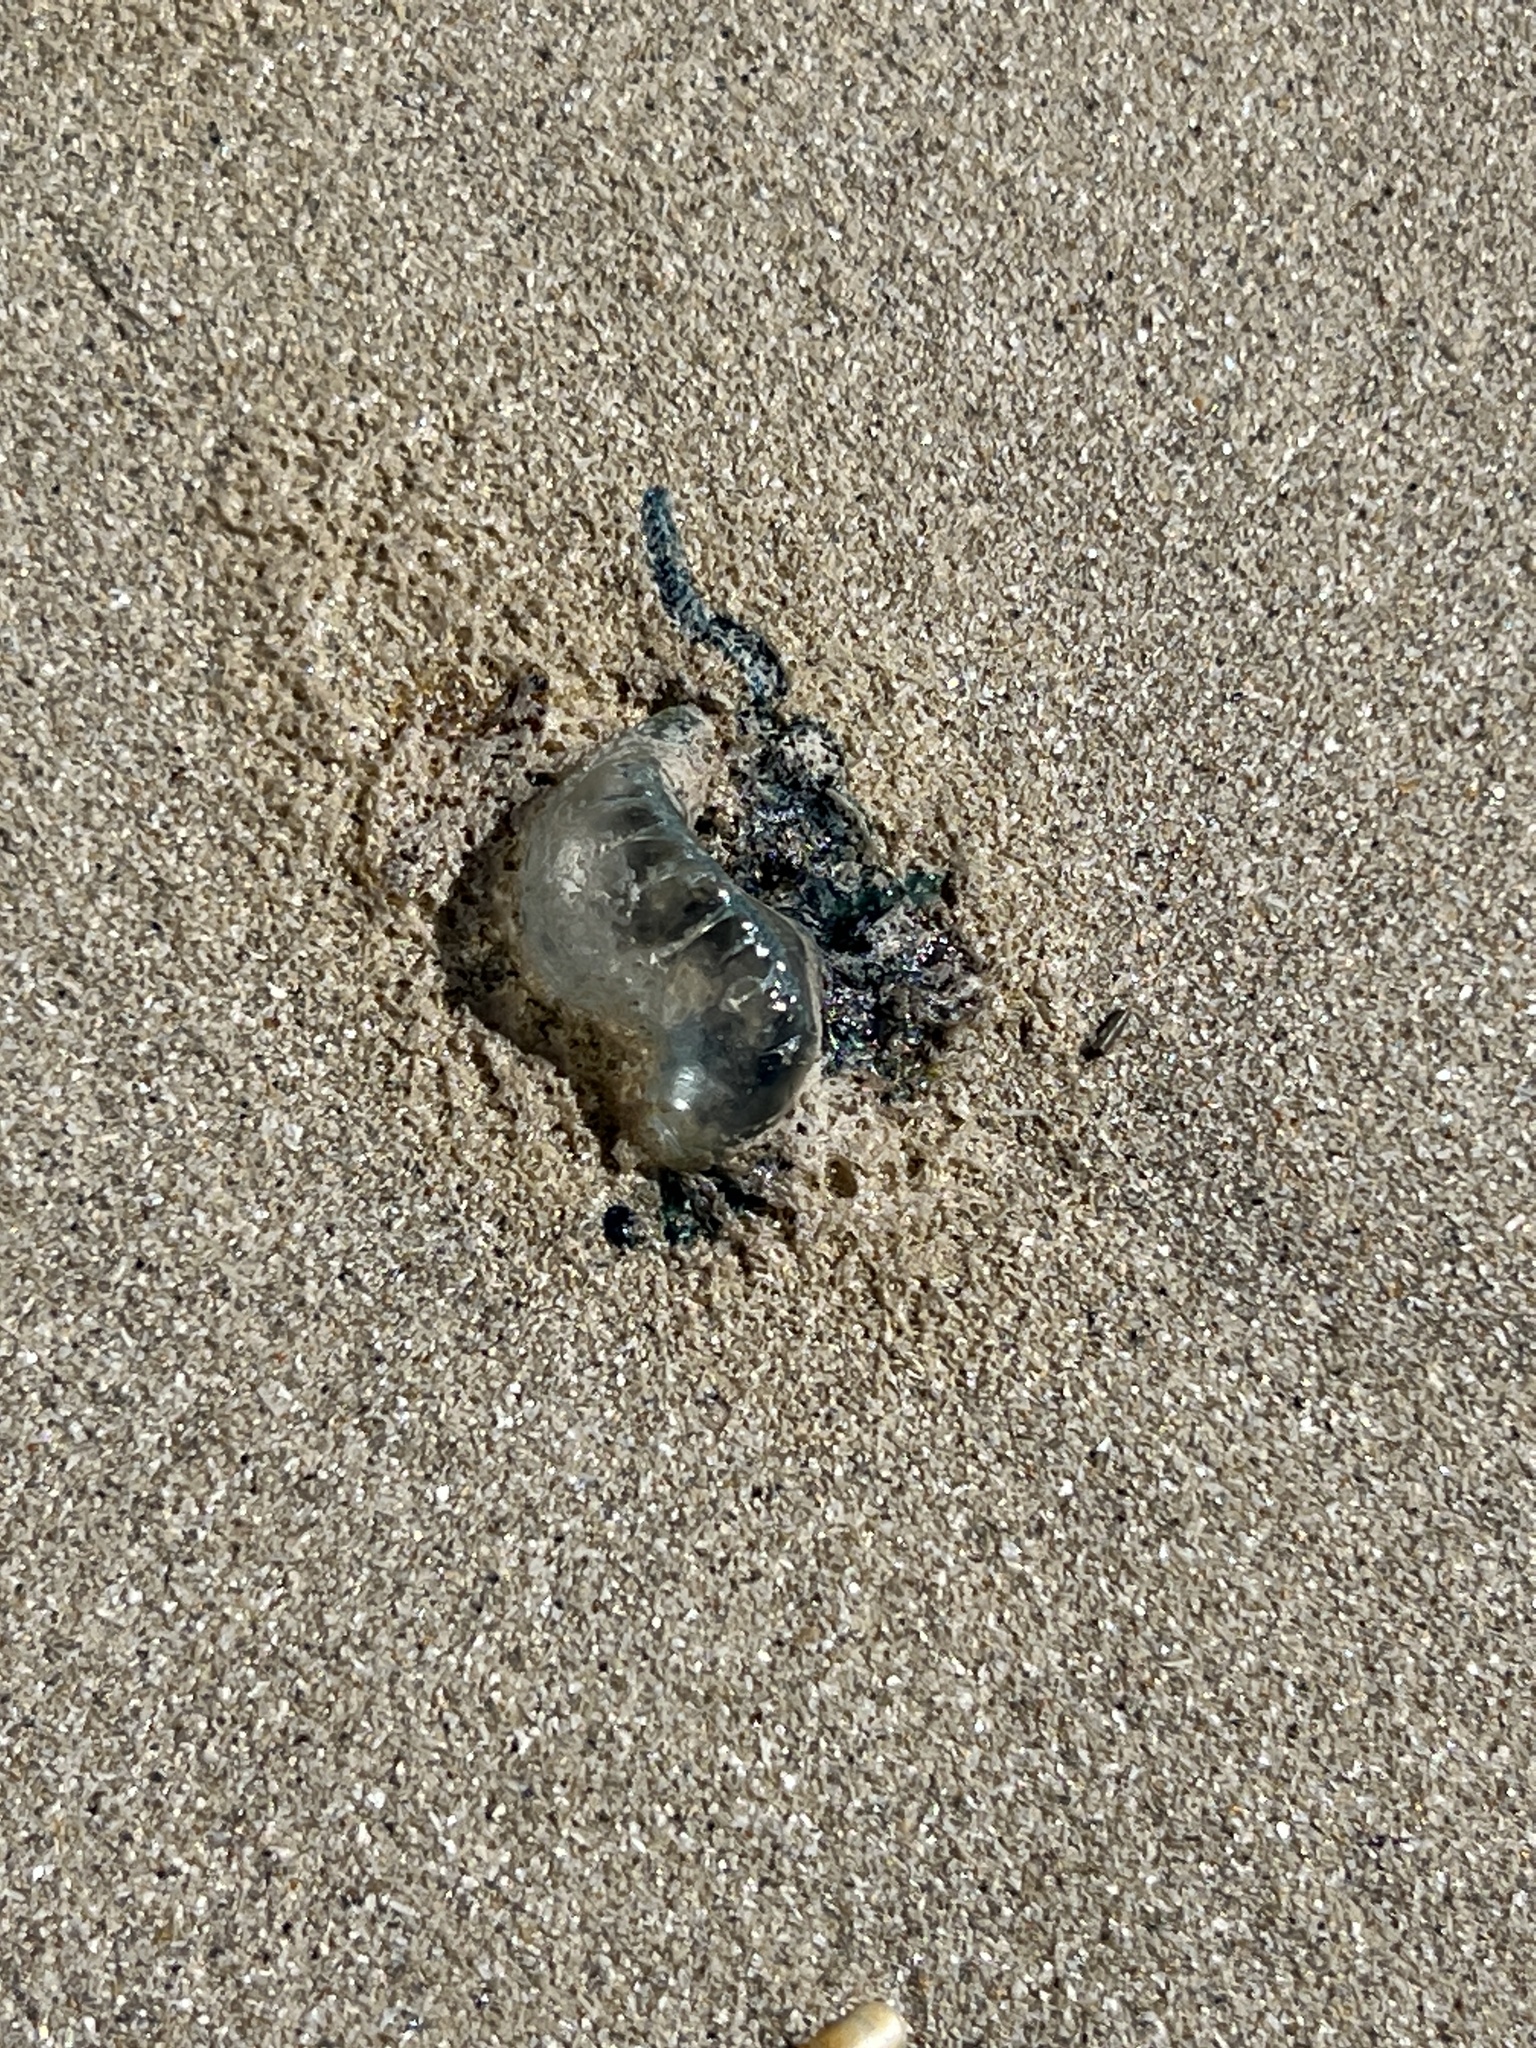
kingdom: Animalia
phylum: Cnidaria
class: Hydrozoa
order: Siphonophorae
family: Physaliidae
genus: Physalia
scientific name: Physalia physalis
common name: Portuguese man-of-war
